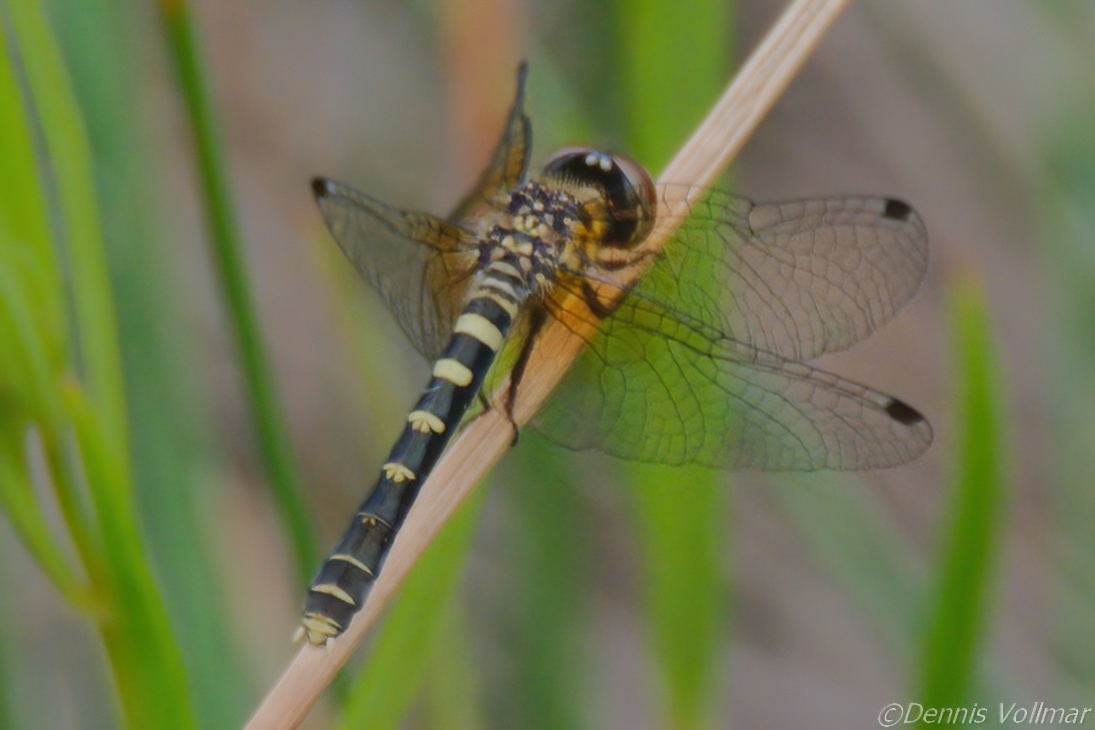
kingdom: Animalia
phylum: Arthropoda
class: Insecta
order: Odonata
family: Libellulidae
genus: Nannothemis
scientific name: Nannothemis bella
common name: Elfin skimmer
